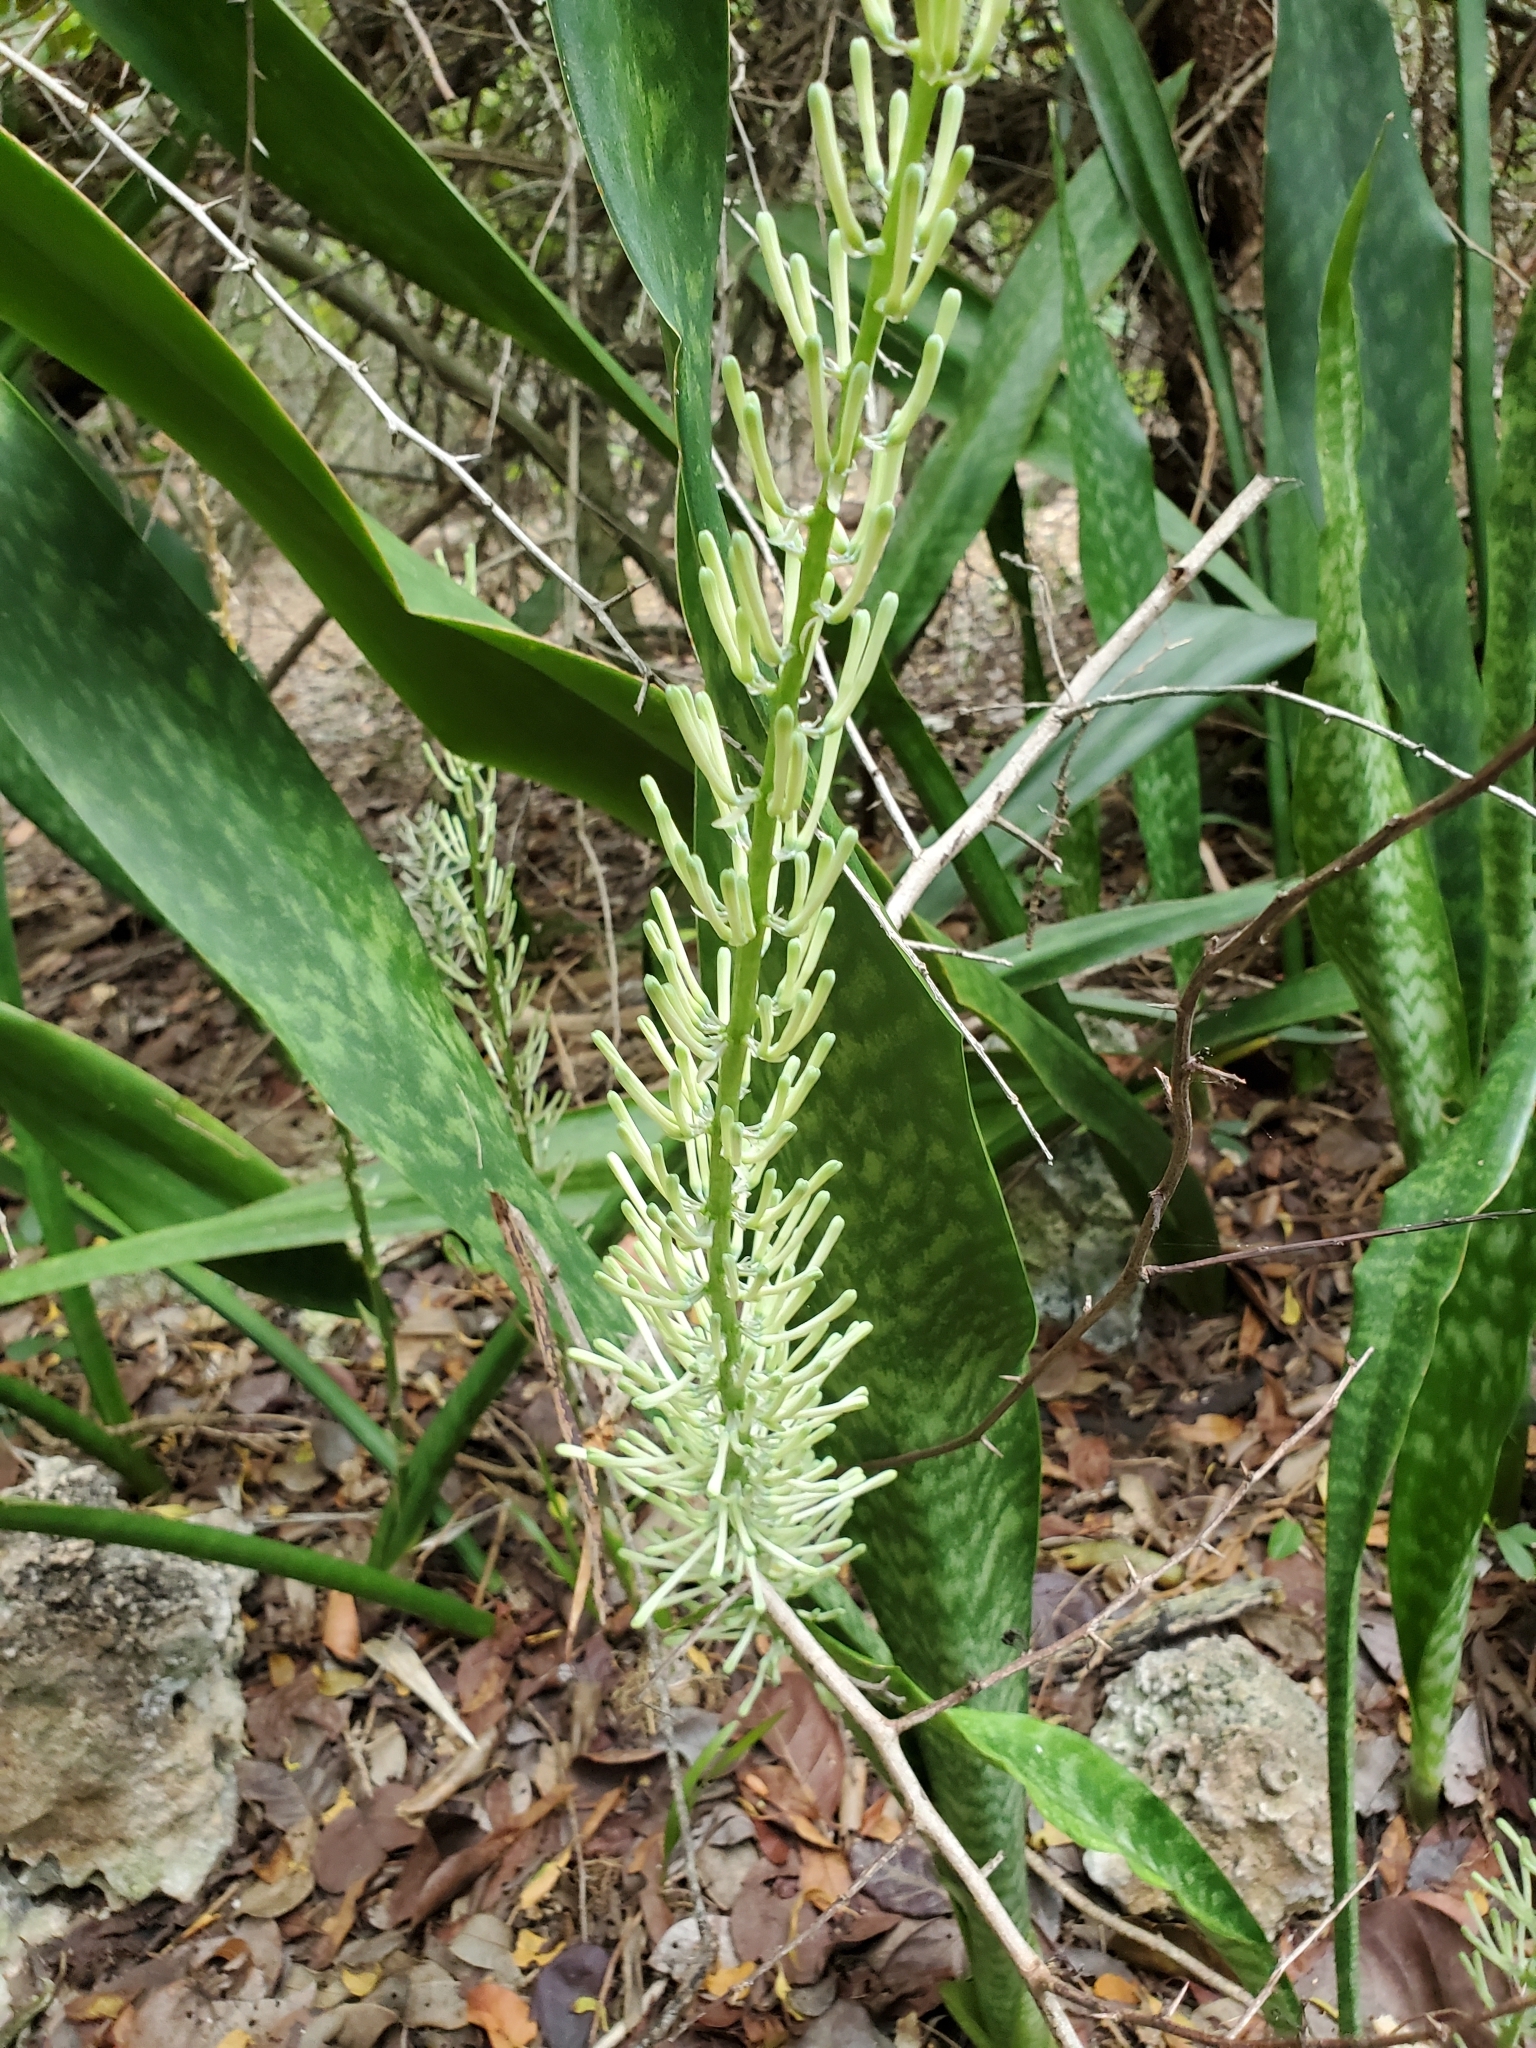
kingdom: Plantae
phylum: Tracheophyta
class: Liliopsida
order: Asparagales
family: Asparagaceae
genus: Dracaena
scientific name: Dracaena hyacinthoides
